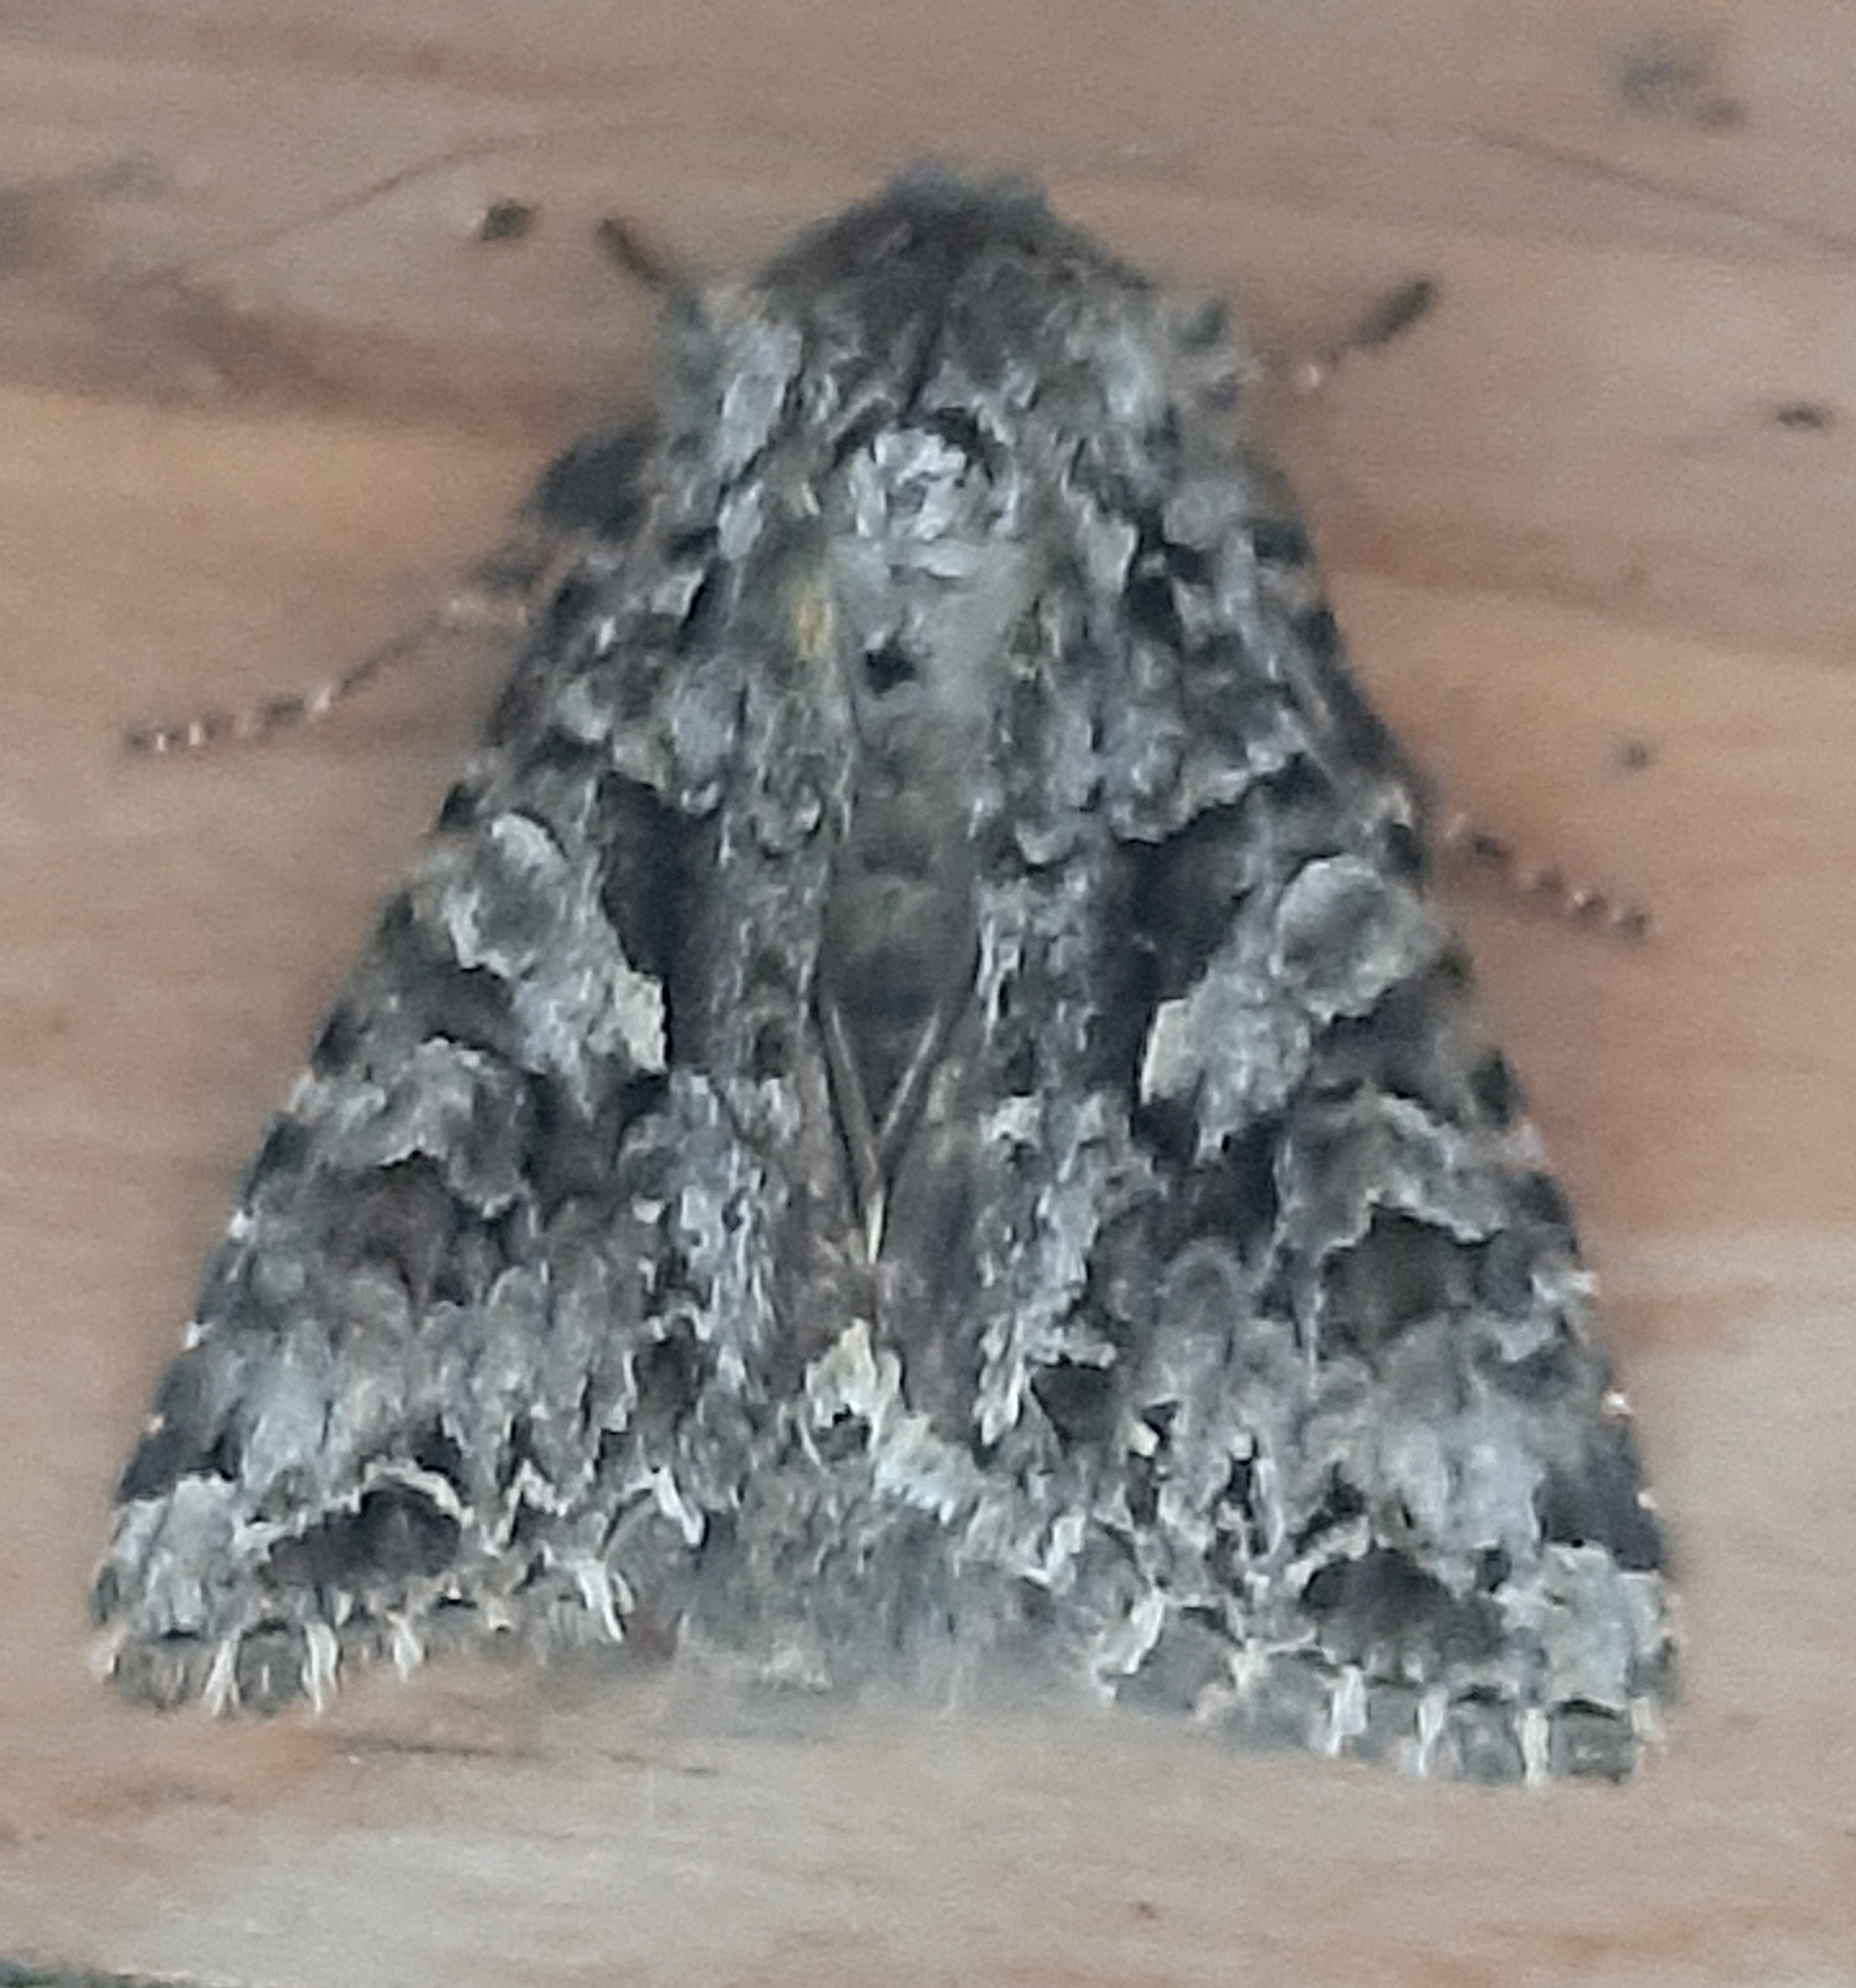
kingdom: Animalia
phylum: Arthropoda
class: Insecta
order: Lepidoptera
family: Noctuidae
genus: Hada
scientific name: Hada plebeja
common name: Shears
